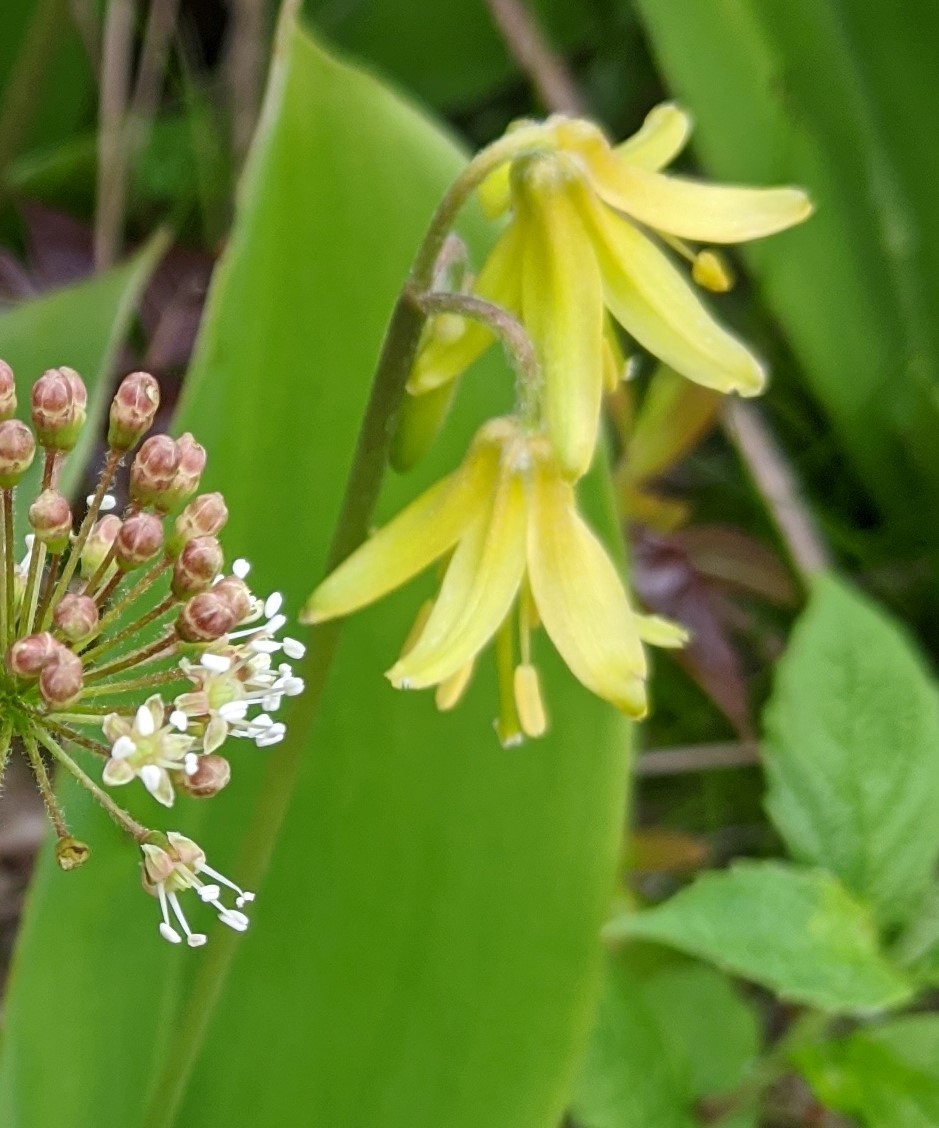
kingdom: Plantae
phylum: Tracheophyta
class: Liliopsida
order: Liliales
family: Liliaceae
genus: Clintonia
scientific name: Clintonia borealis
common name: Yellow clintonia
